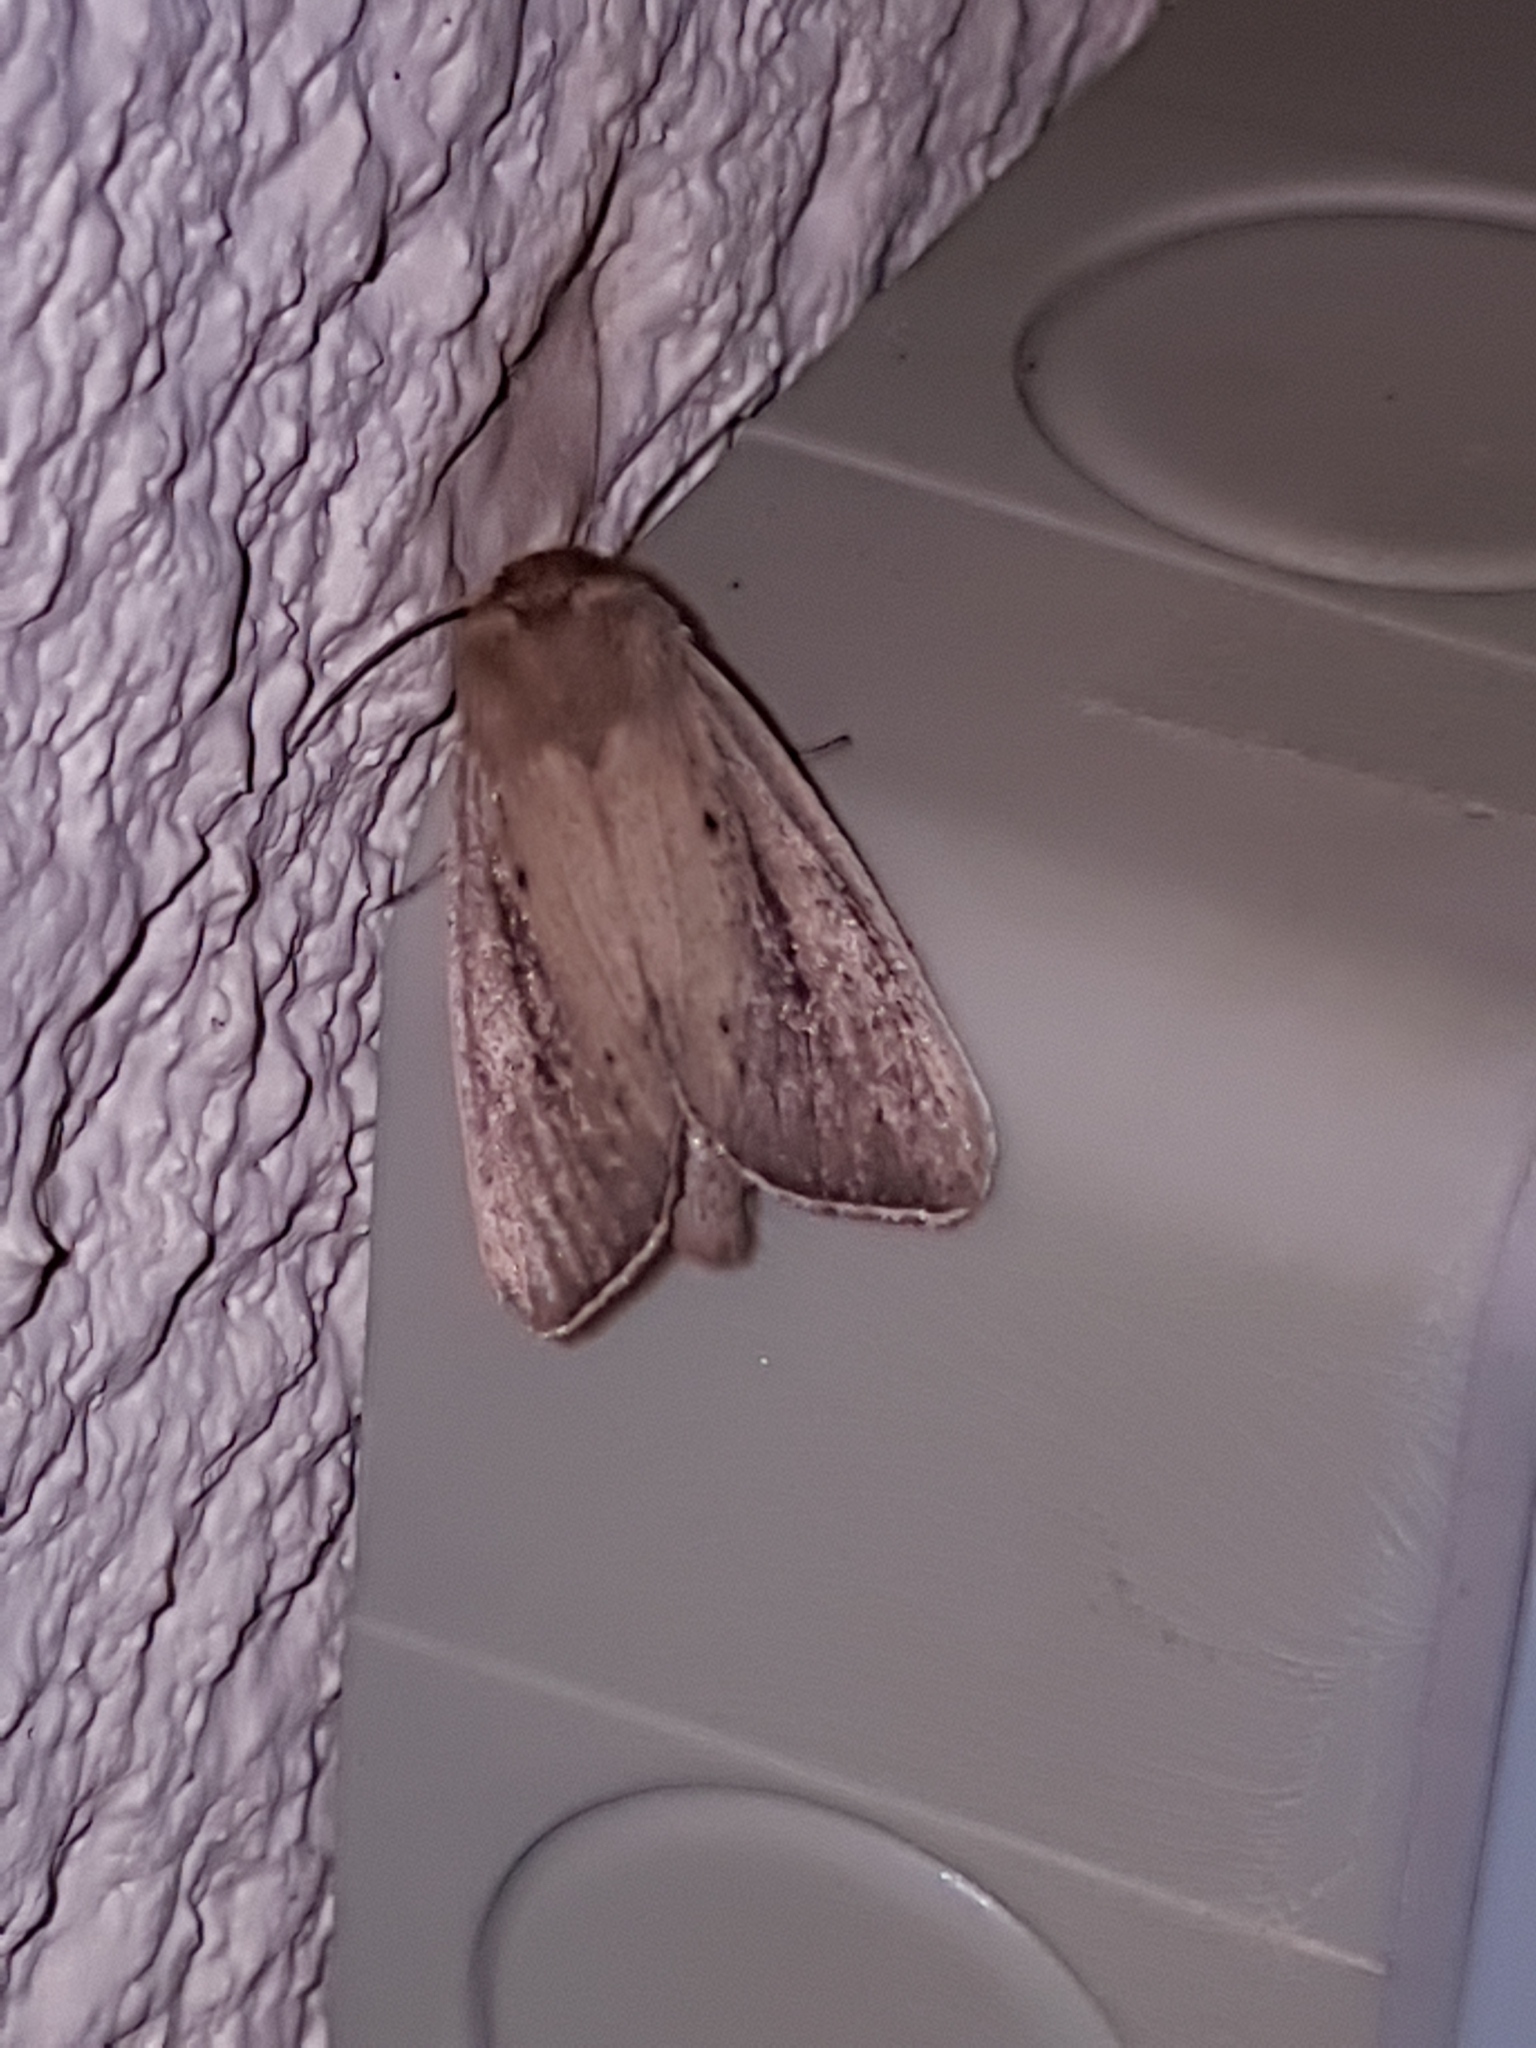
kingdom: Animalia
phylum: Arthropoda
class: Insecta
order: Lepidoptera
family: Noctuidae
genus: Sesamia
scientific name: Sesamia nonagrioides
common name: Pink stem borer
